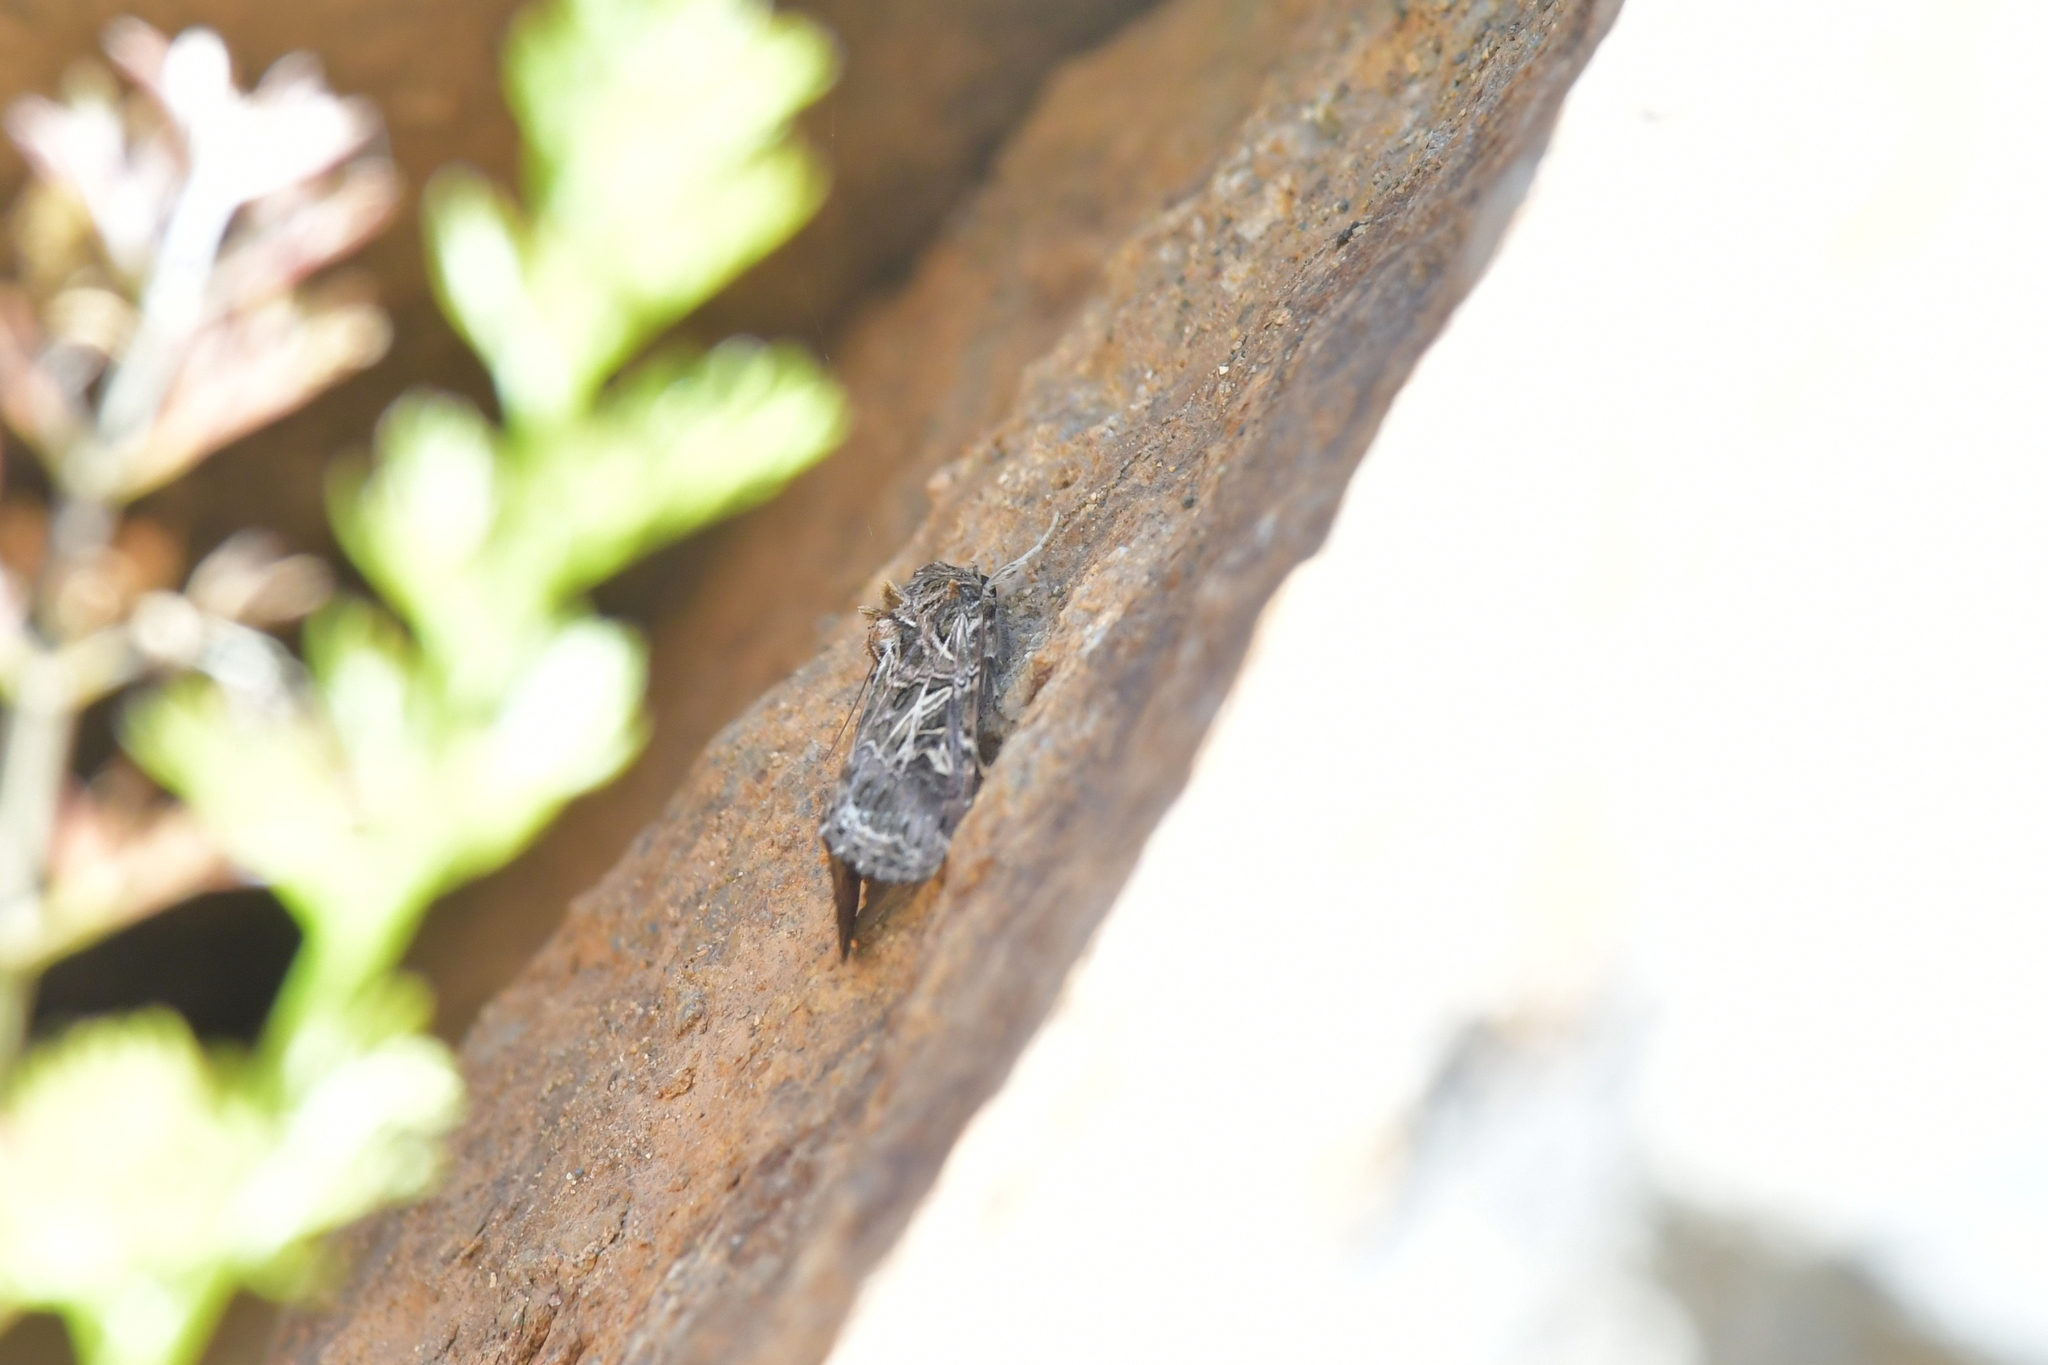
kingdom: Animalia
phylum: Arthropoda
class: Insecta
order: Lepidoptera
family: Noctuidae
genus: Spodoptera
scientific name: Spodoptera litura
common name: Asian cotton leafworm
